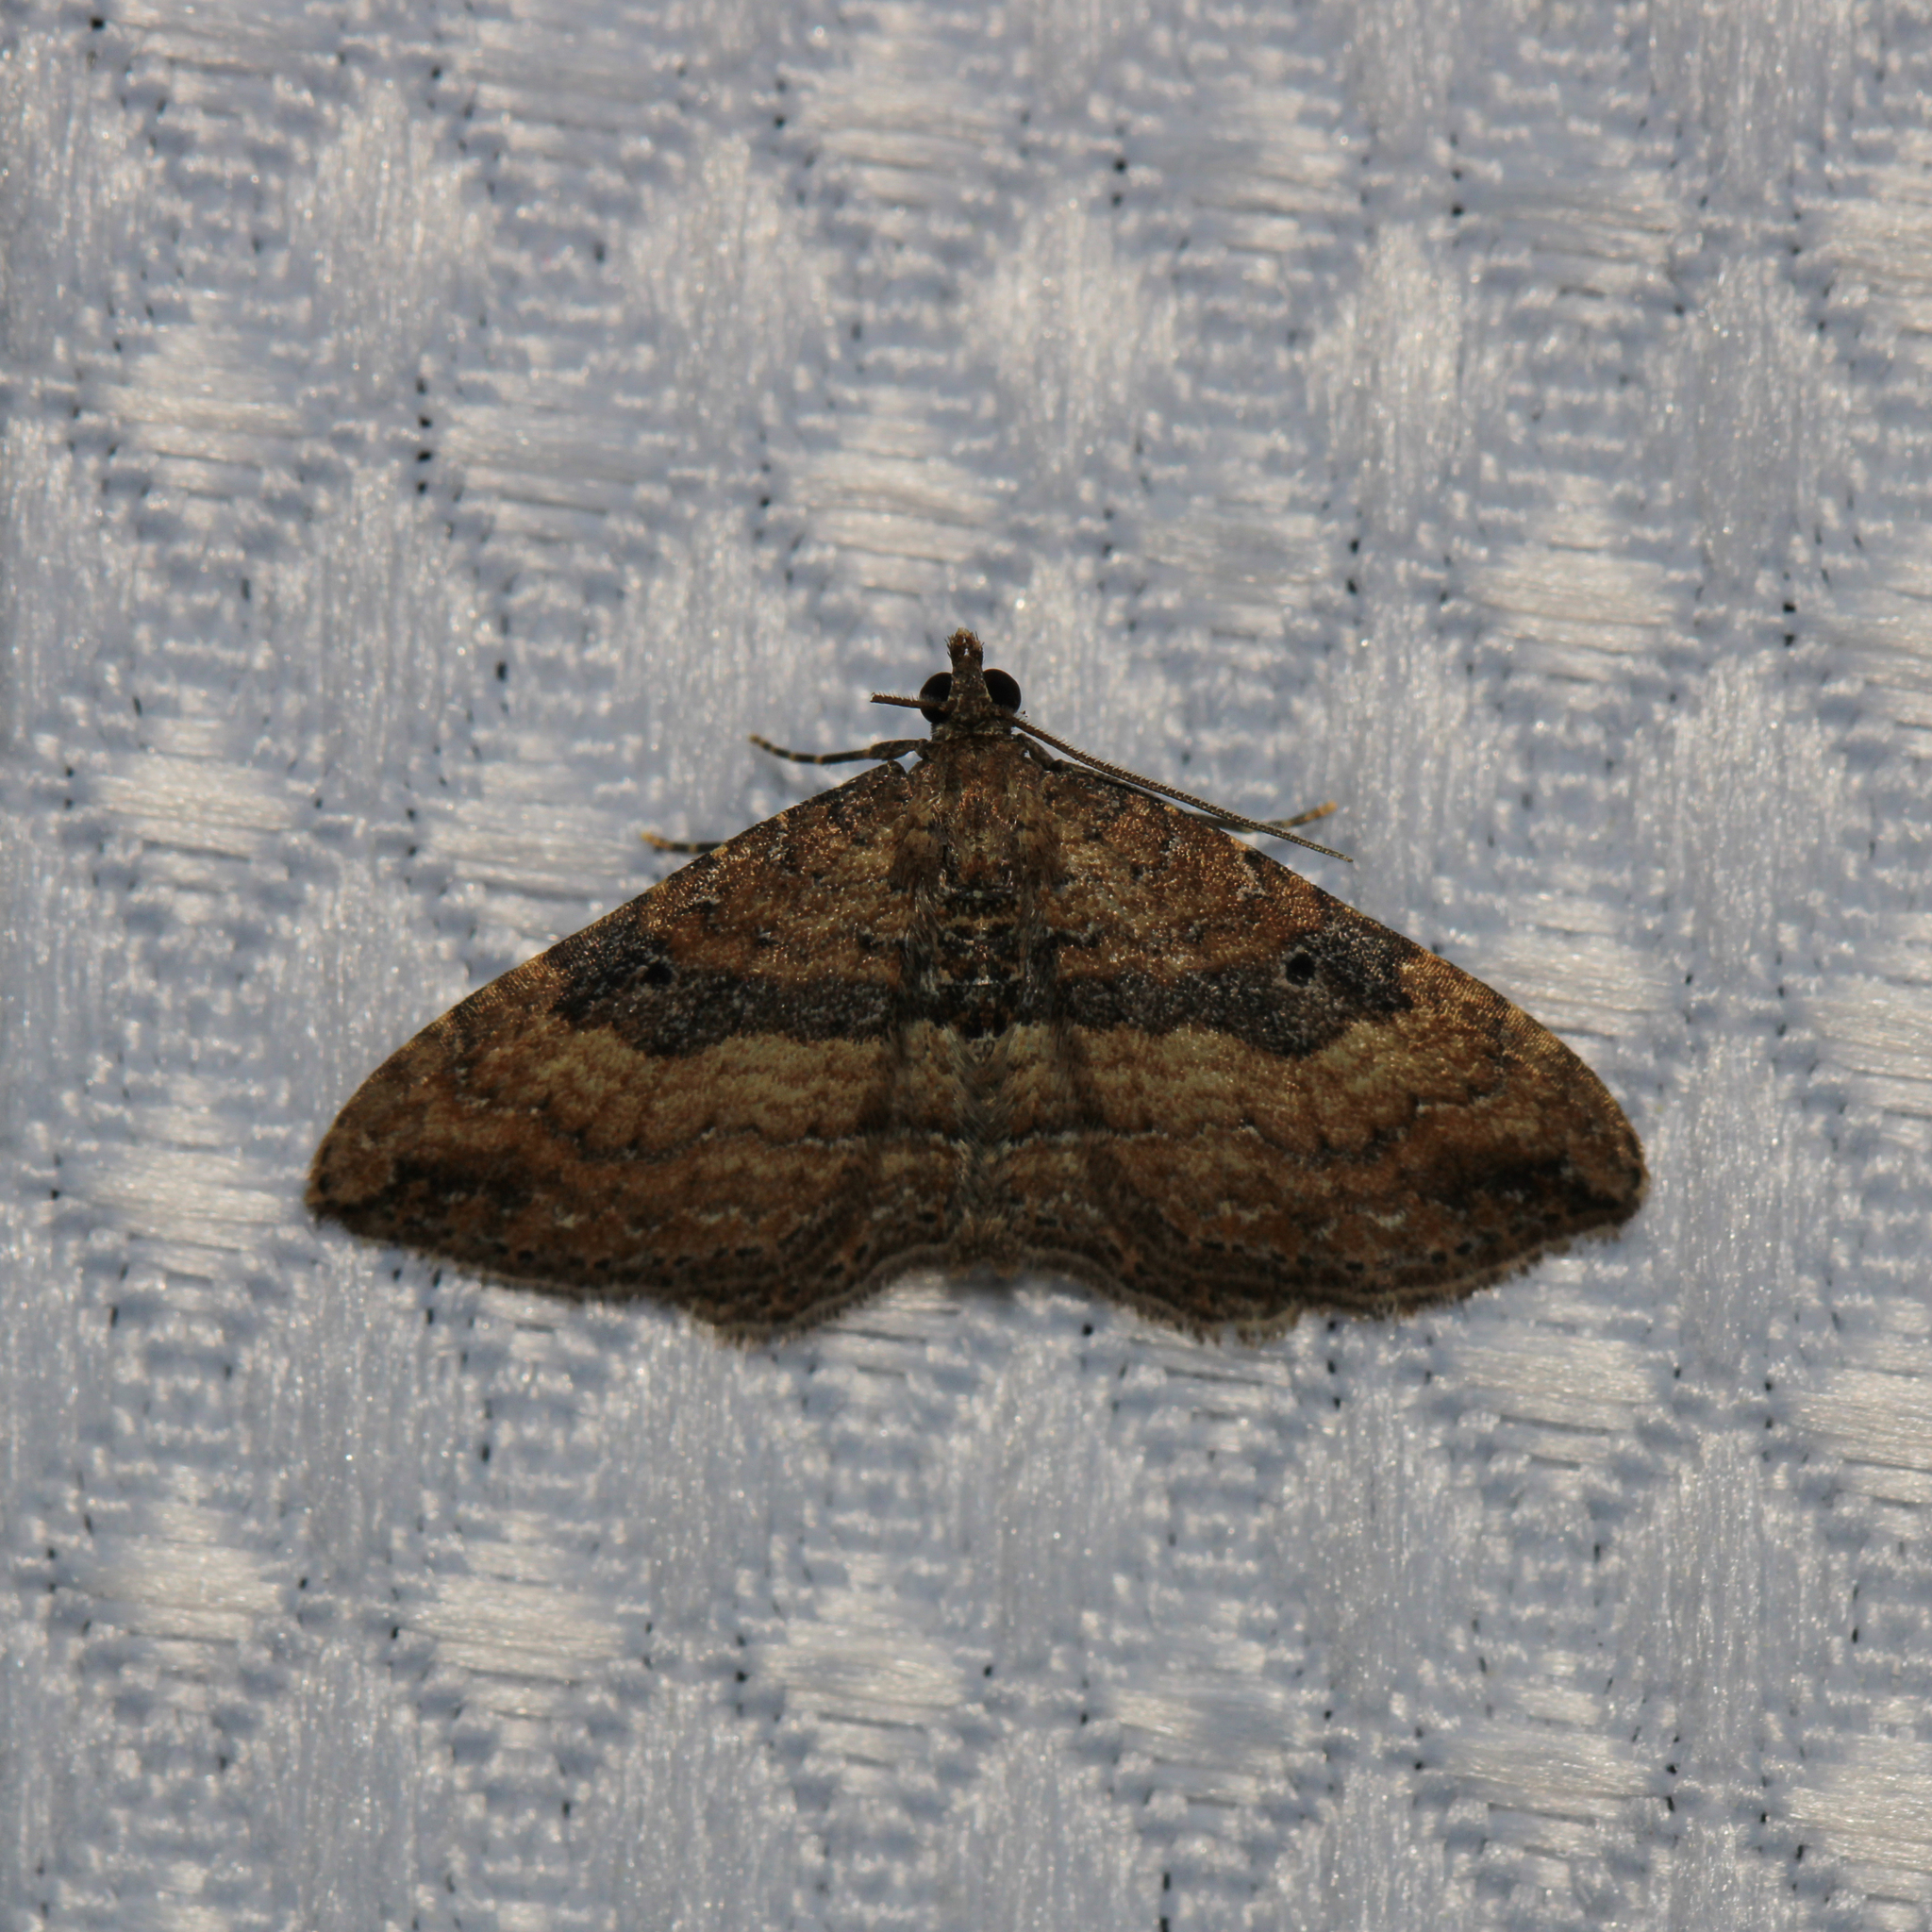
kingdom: Animalia
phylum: Arthropoda
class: Insecta
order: Lepidoptera
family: Geometridae
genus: Orthonama
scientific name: Orthonama obstipata
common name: The gem
